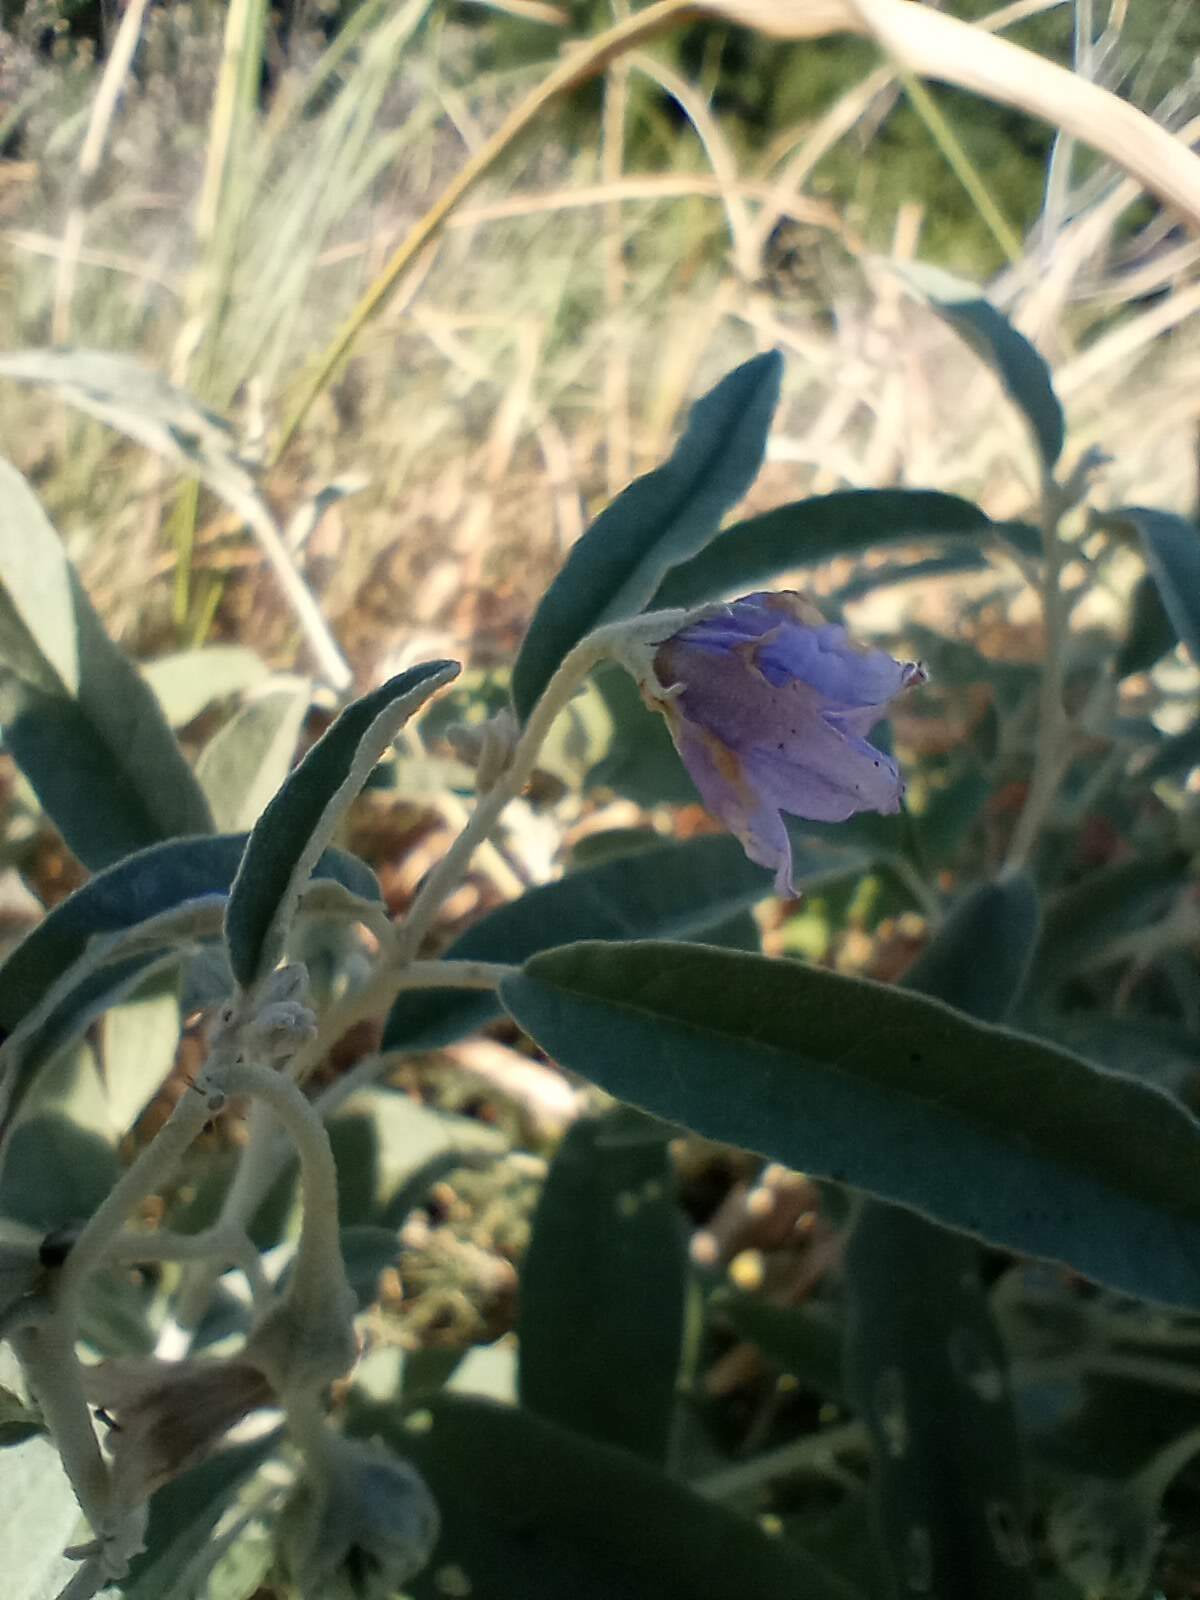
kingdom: Plantae
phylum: Tracheophyta
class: Magnoliopsida
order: Solanales
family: Solanaceae
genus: Solanum
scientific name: Solanum elaeagnifolium
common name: Silverleaf nightshade
